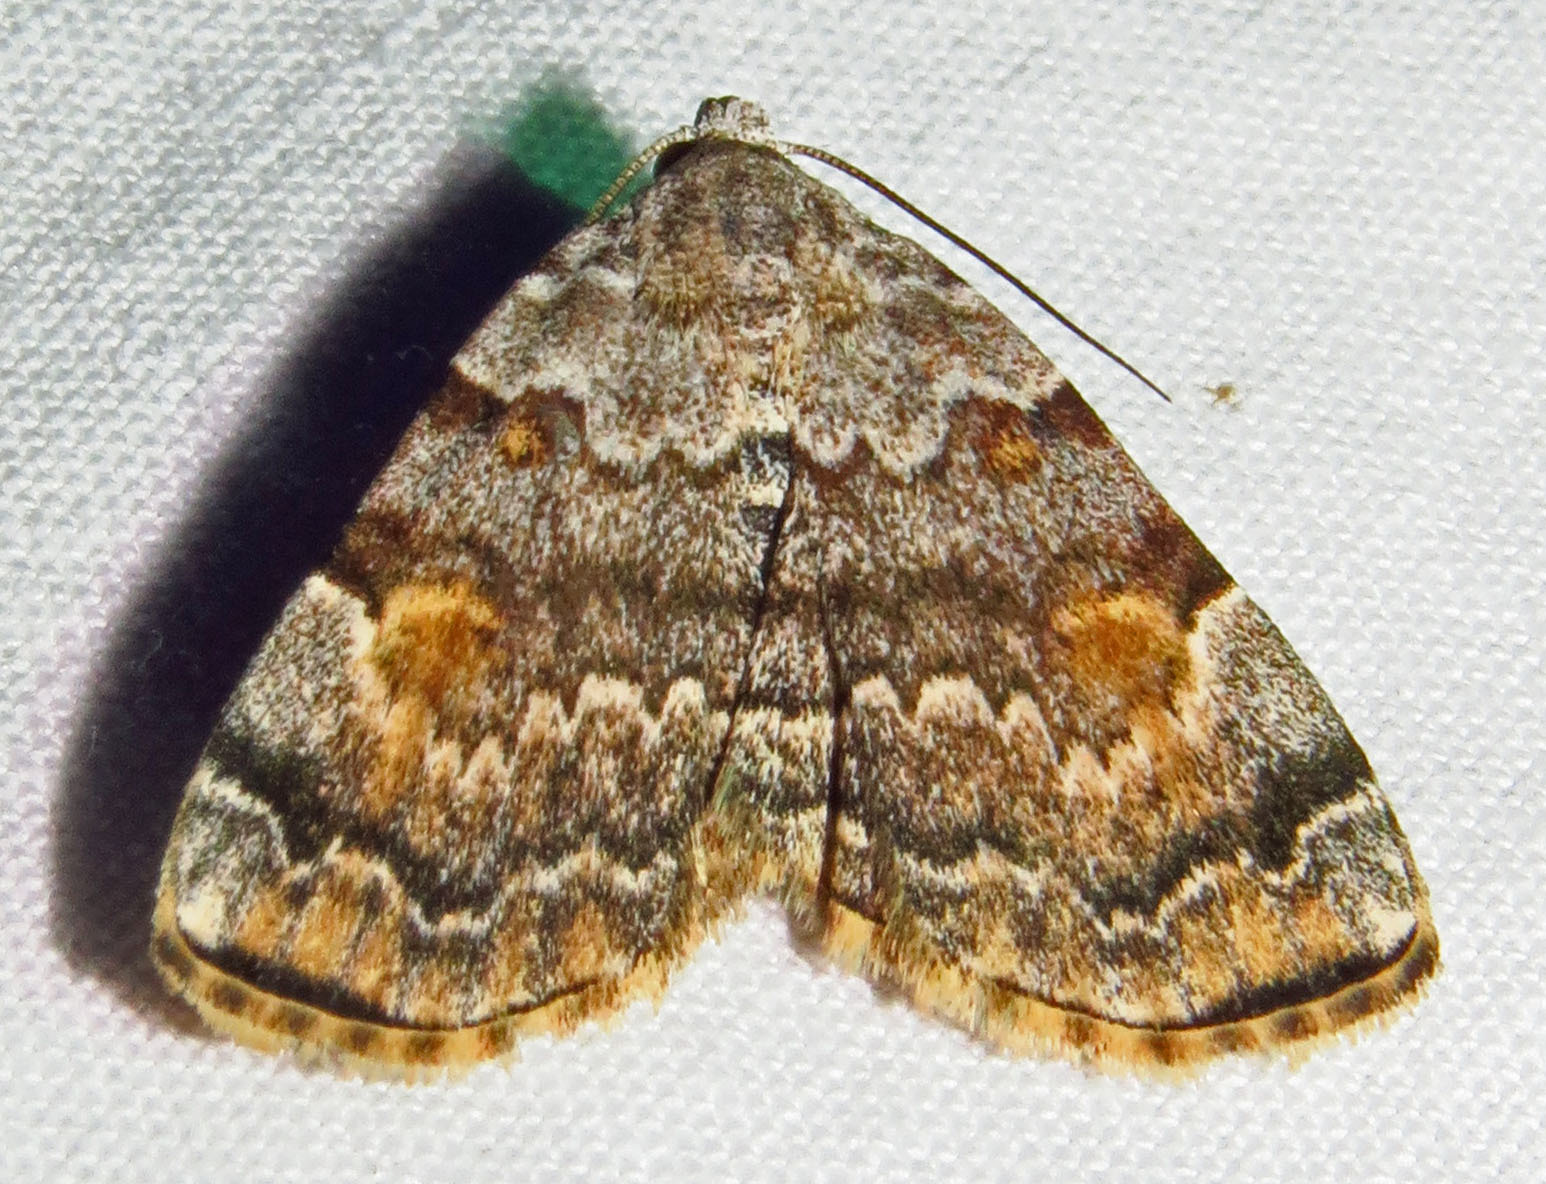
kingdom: Animalia
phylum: Arthropoda
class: Insecta
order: Lepidoptera
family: Erebidae
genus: Idia
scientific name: Idia americalis
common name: American idia moth
